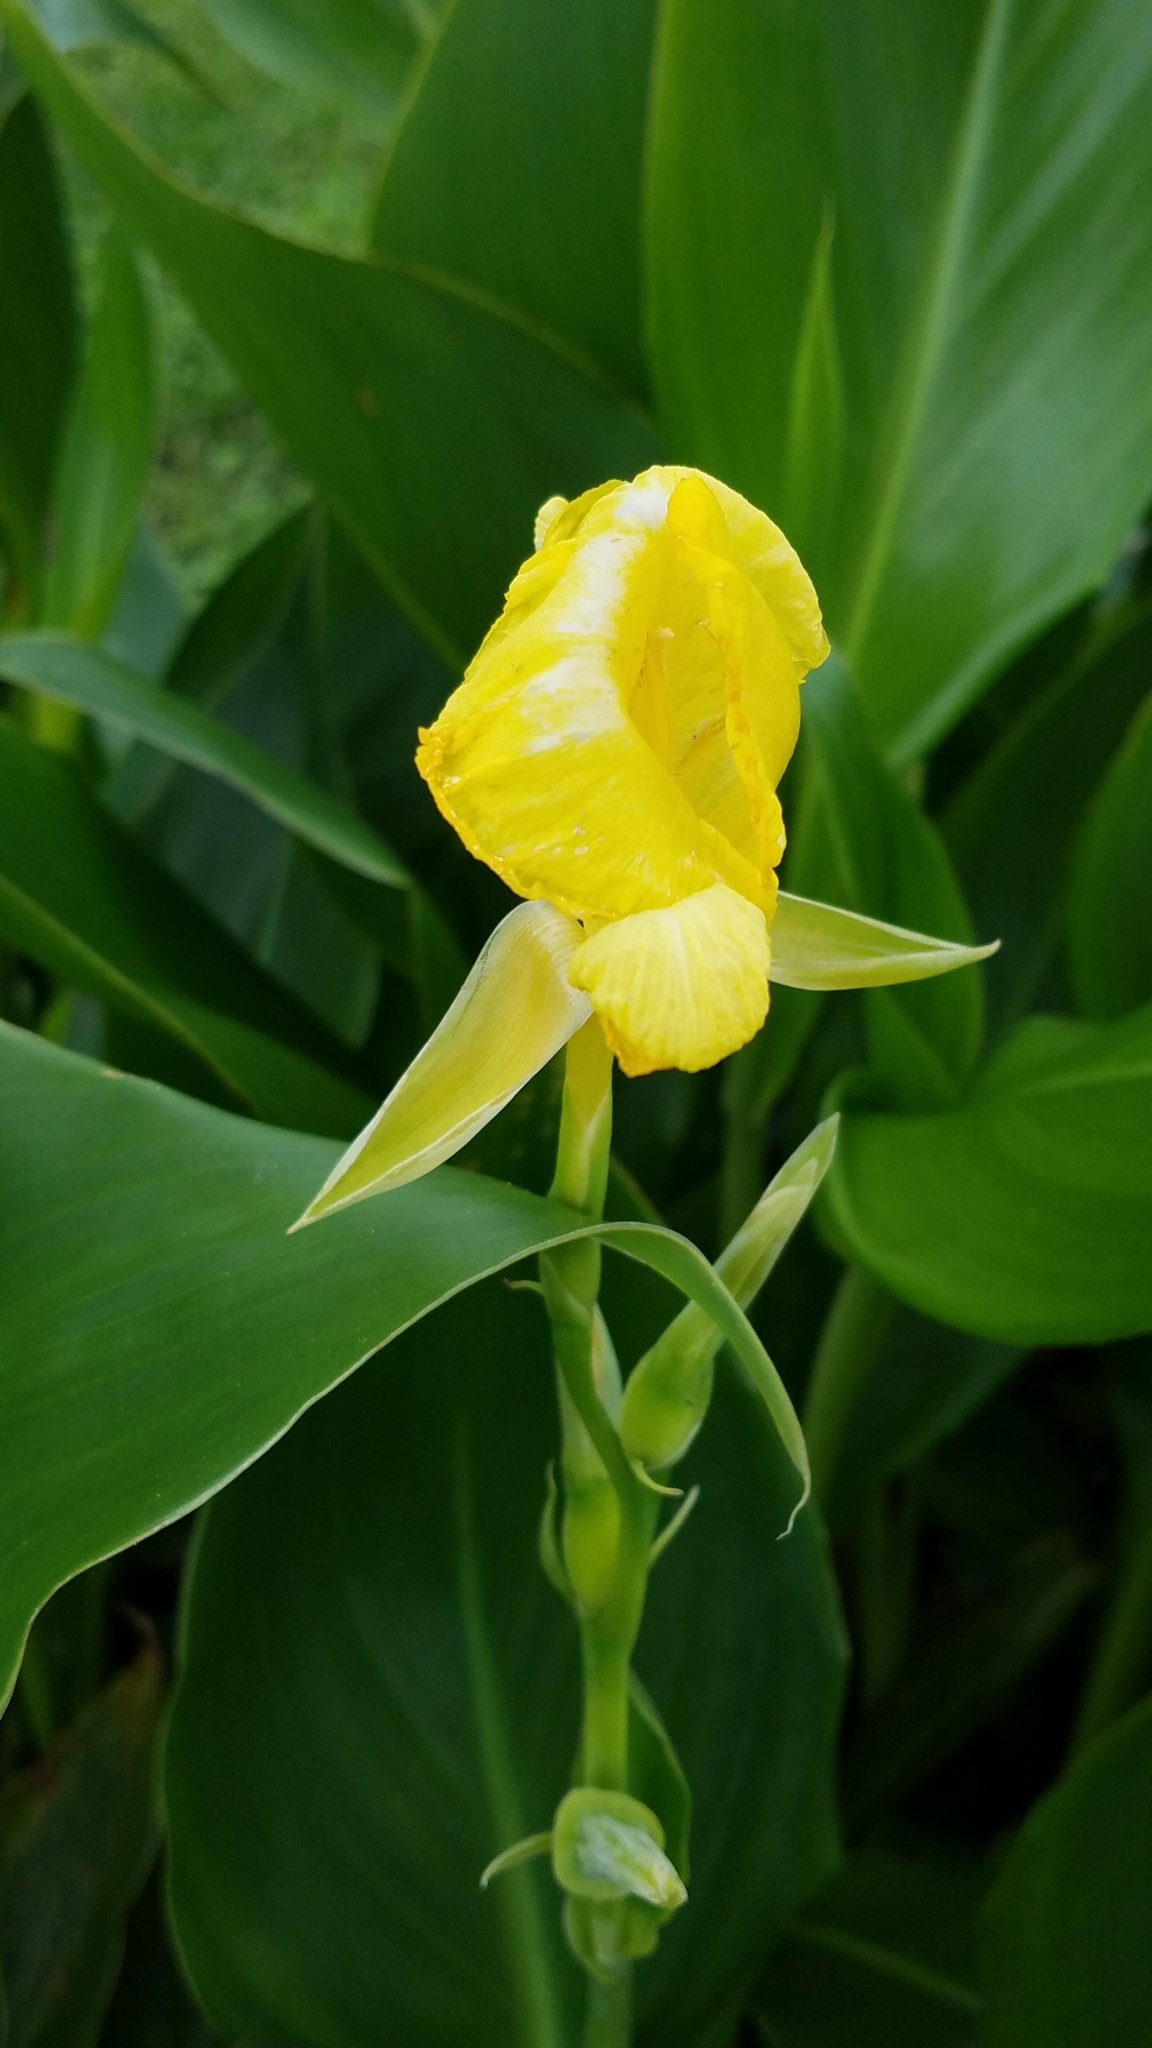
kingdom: Plantae
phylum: Tracheophyta
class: Liliopsida
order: Zingiberales
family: Cannaceae
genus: Canna
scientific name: Canna flaccida
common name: Bandana-of-the-everglades
